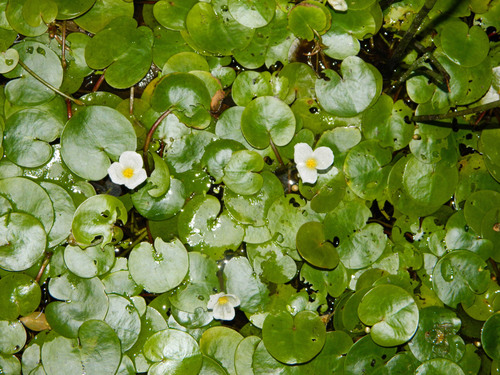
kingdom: Plantae
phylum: Tracheophyta
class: Liliopsida
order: Alismatales
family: Hydrocharitaceae
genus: Hydrocharis
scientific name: Hydrocharis morsus-ranae
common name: European frog-bit
